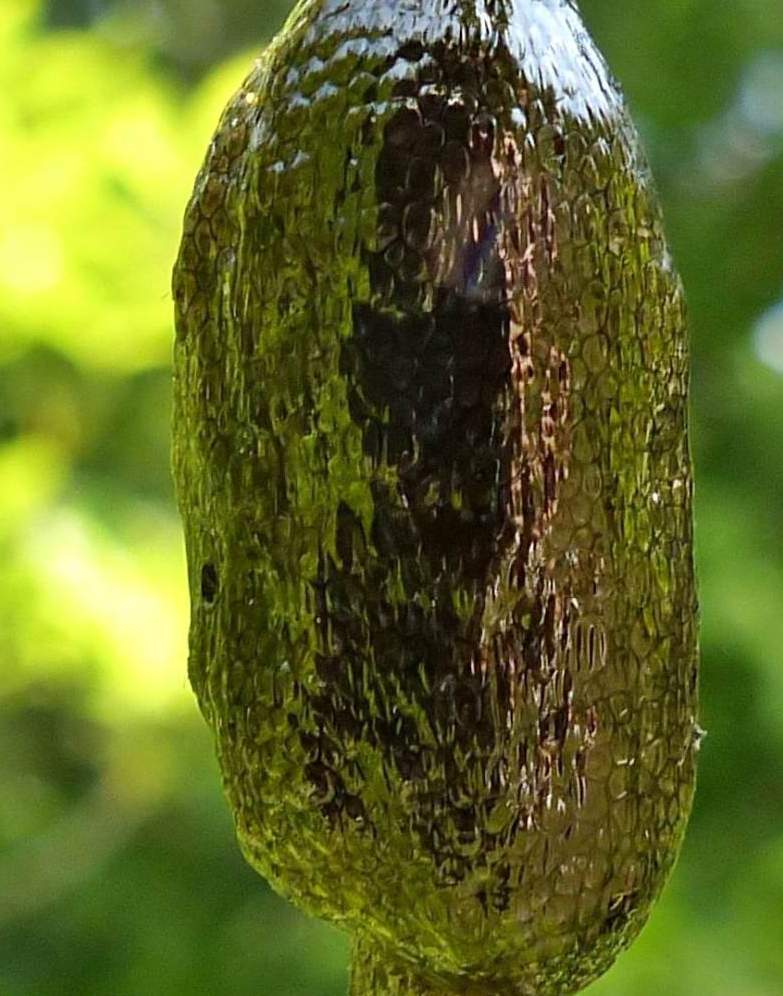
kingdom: Animalia
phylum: Arthropoda
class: Insecta
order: Lepidoptera
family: Lasiocampidae
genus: Malacosoma
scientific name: Malacosoma americana
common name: Eastern tent caterpillar moth
